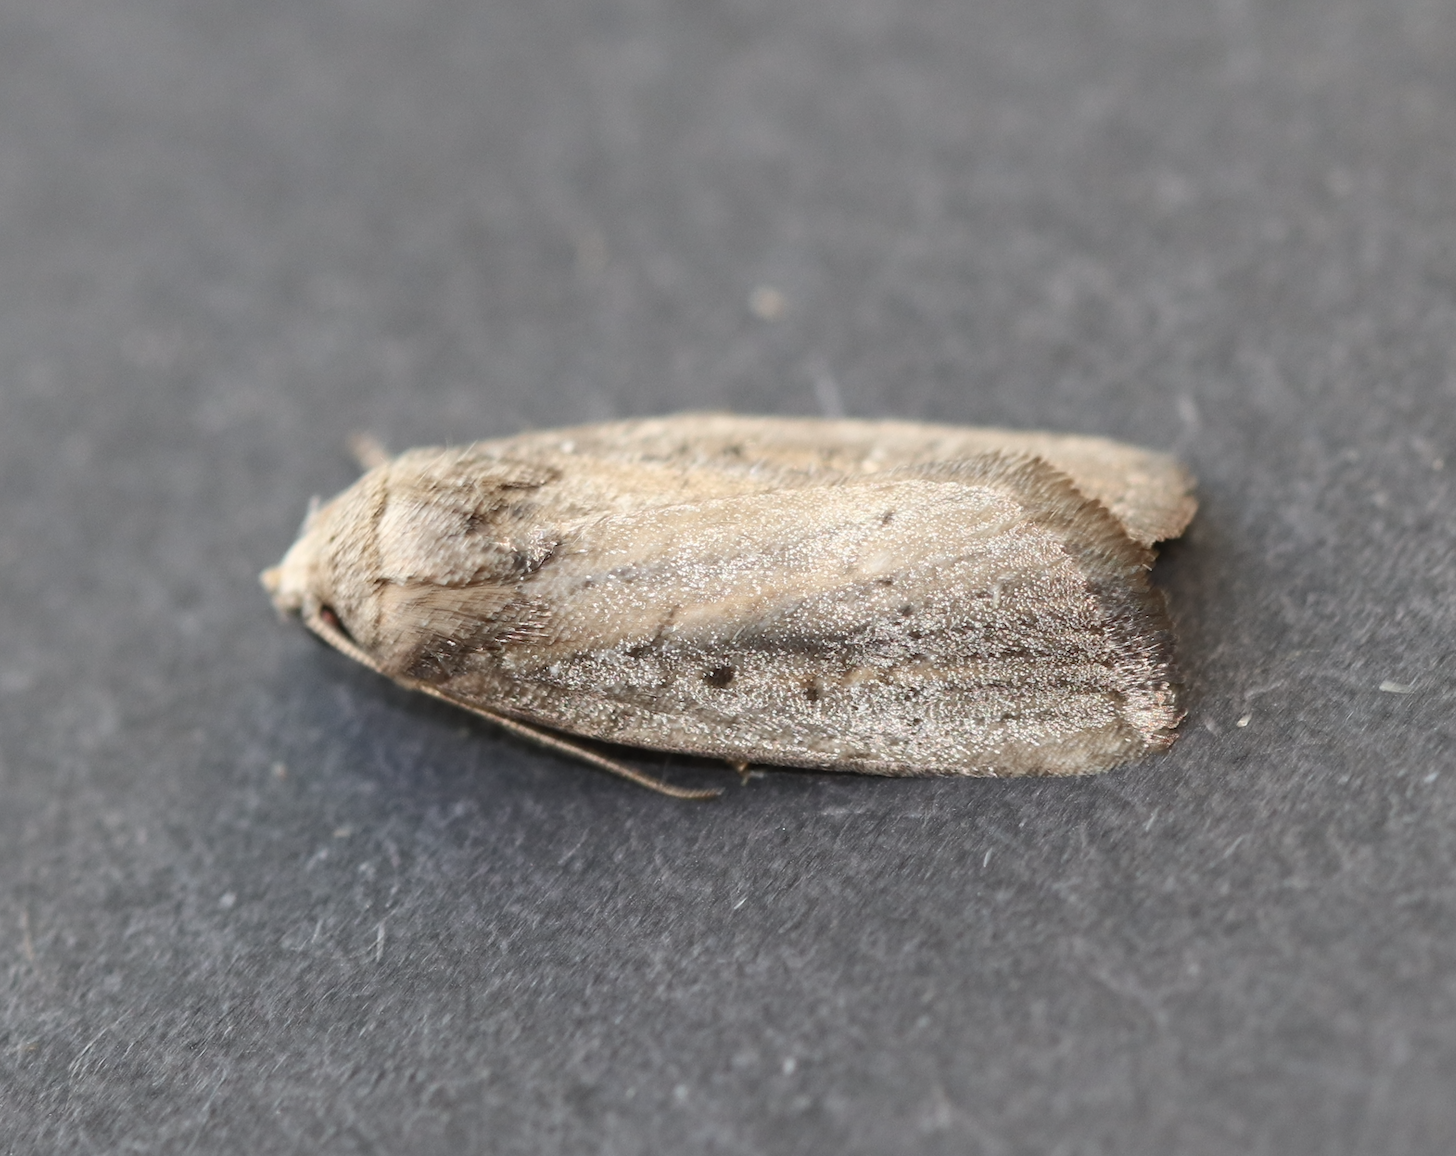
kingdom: Animalia
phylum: Arthropoda
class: Insecta
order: Lepidoptera
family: Noctuidae
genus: Athetis
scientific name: Athetis hospes
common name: Porter's rustic
